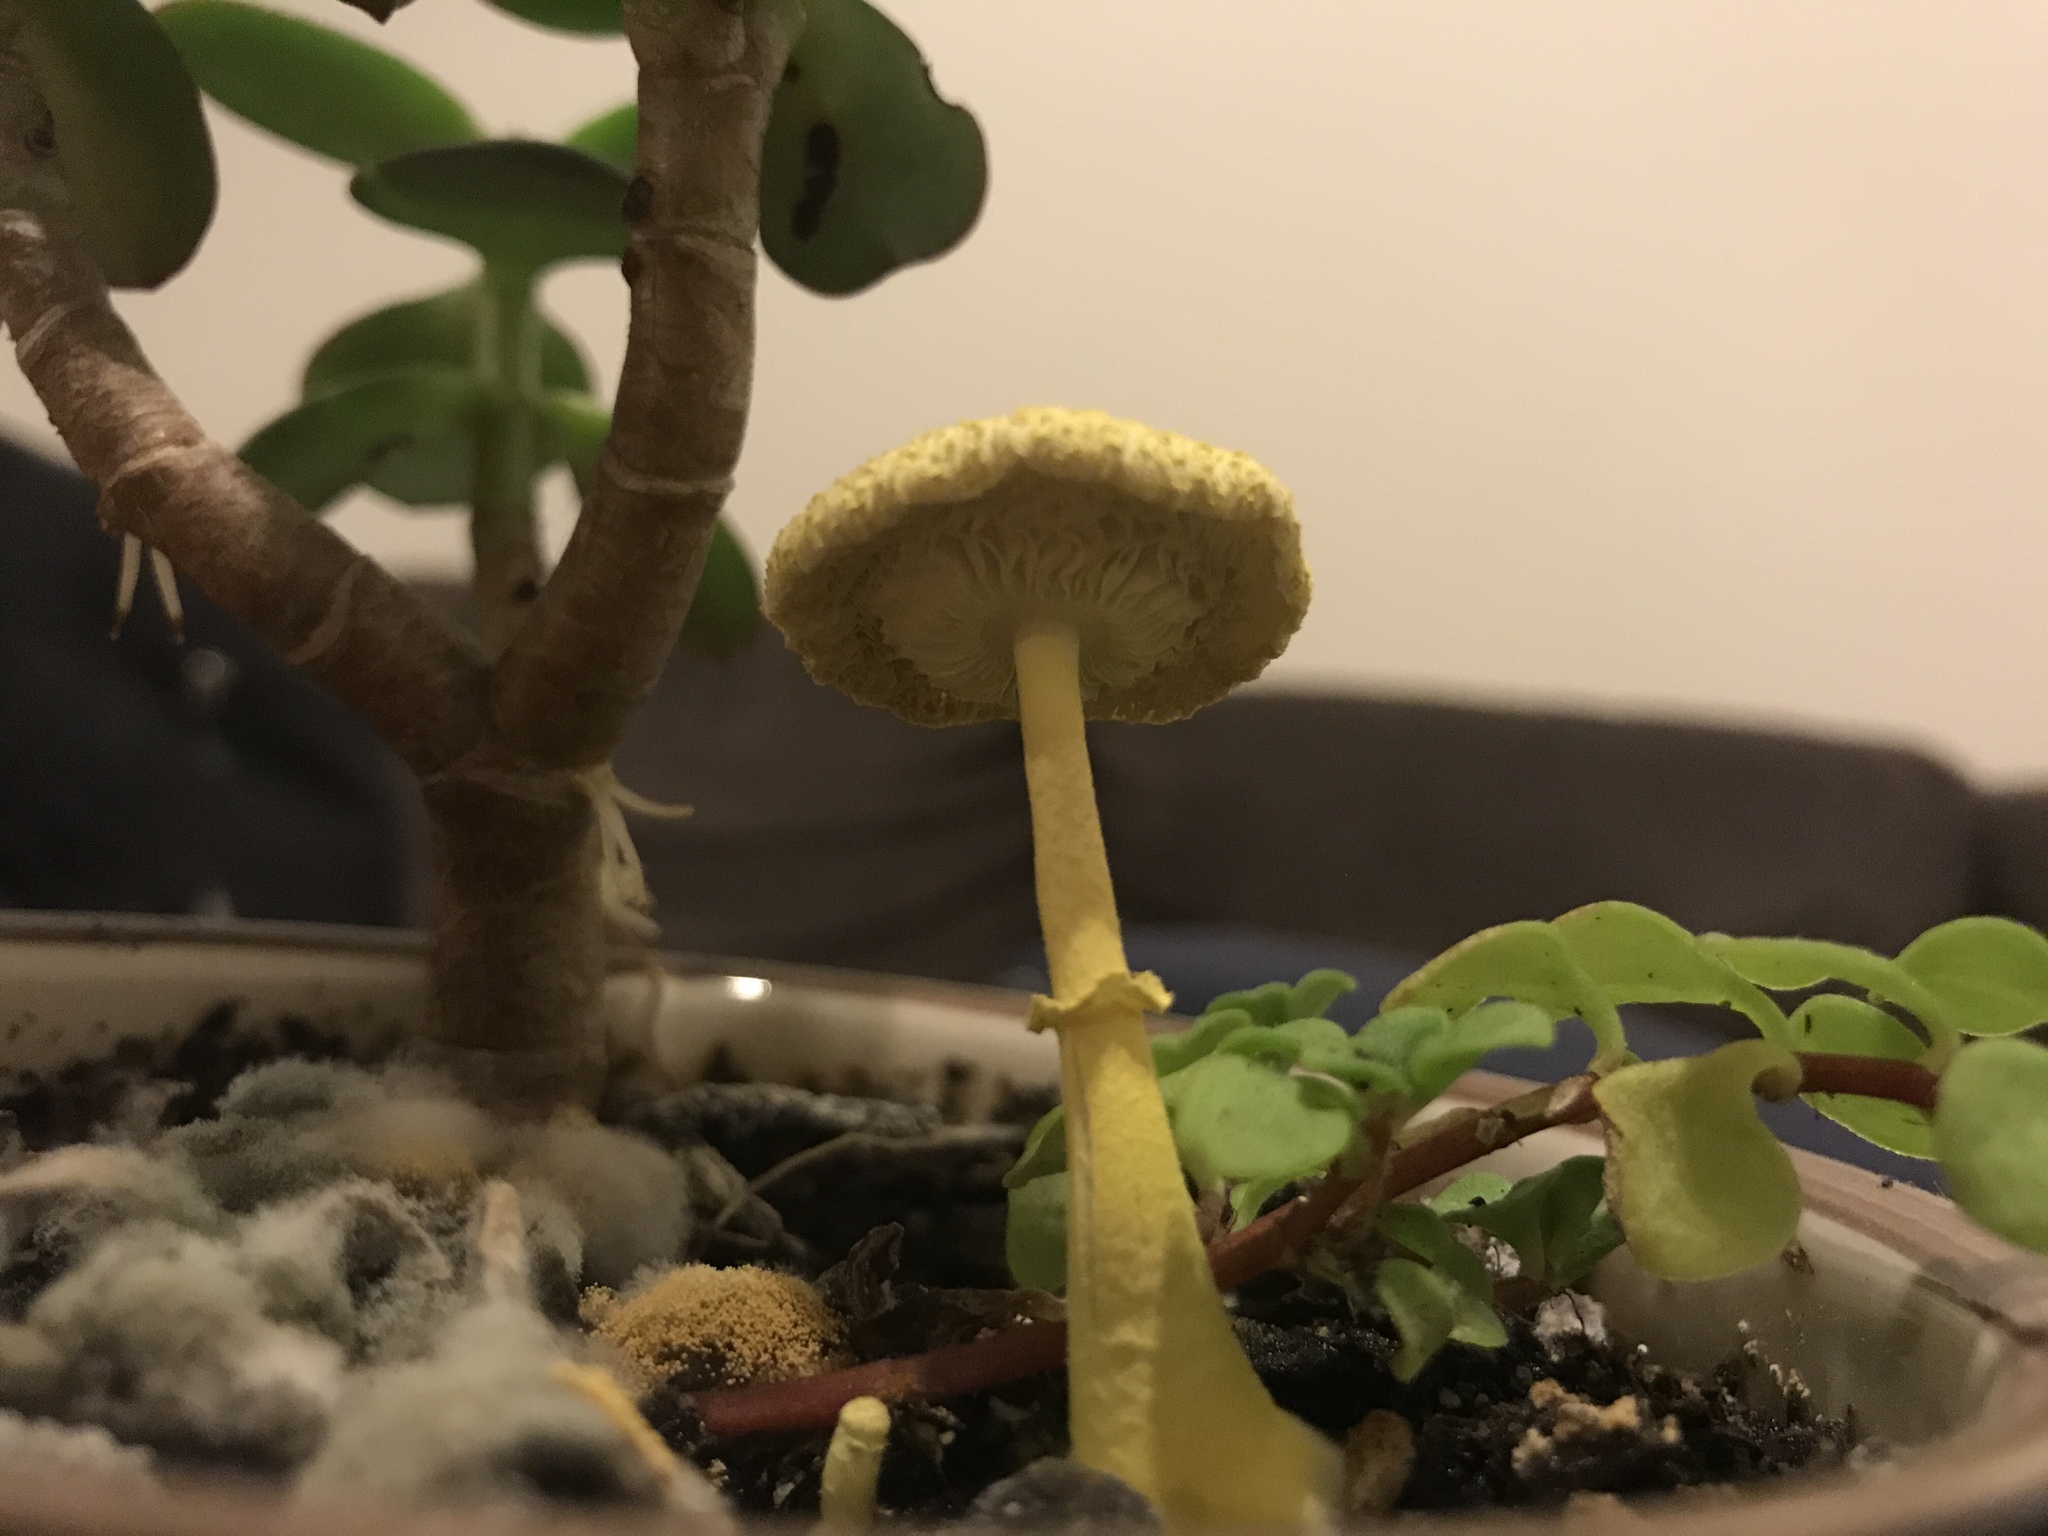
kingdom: Fungi
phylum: Basidiomycota
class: Agaricomycetes
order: Agaricales
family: Agaricaceae
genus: Leucocoprinus
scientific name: Leucocoprinus birnbaumii
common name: Plantpot dapperling
